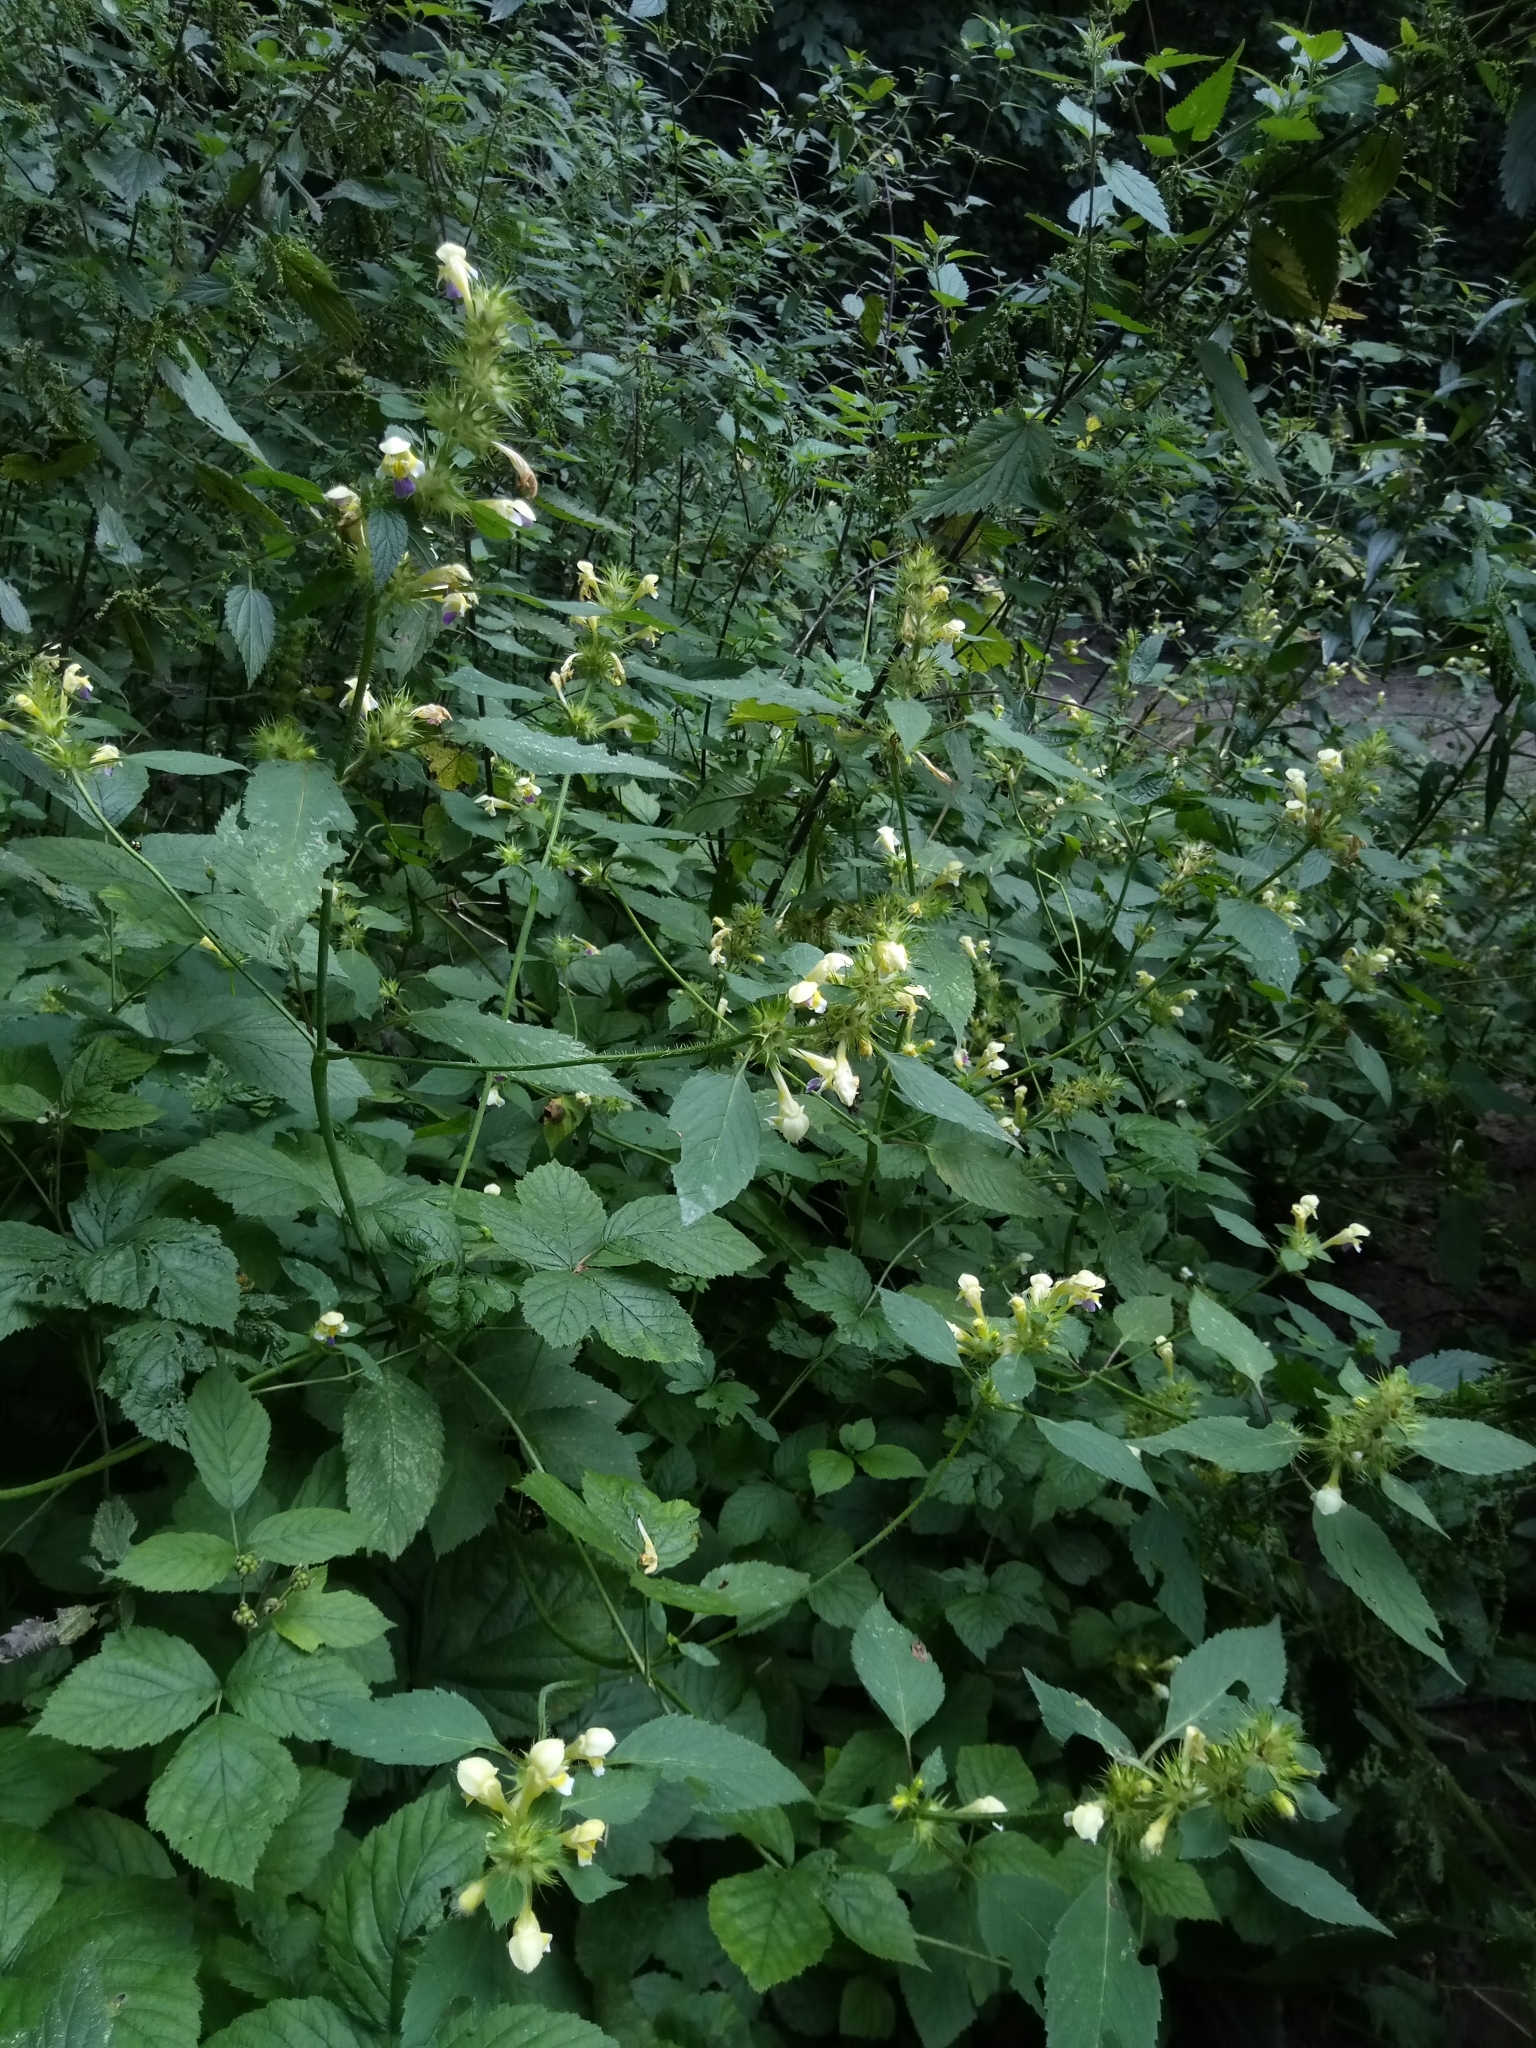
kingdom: Plantae
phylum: Tracheophyta
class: Magnoliopsida
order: Lamiales
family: Lamiaceae
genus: Galeopsis
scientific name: Galeopsis speciosa
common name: Large-flowered hemp-nettle
